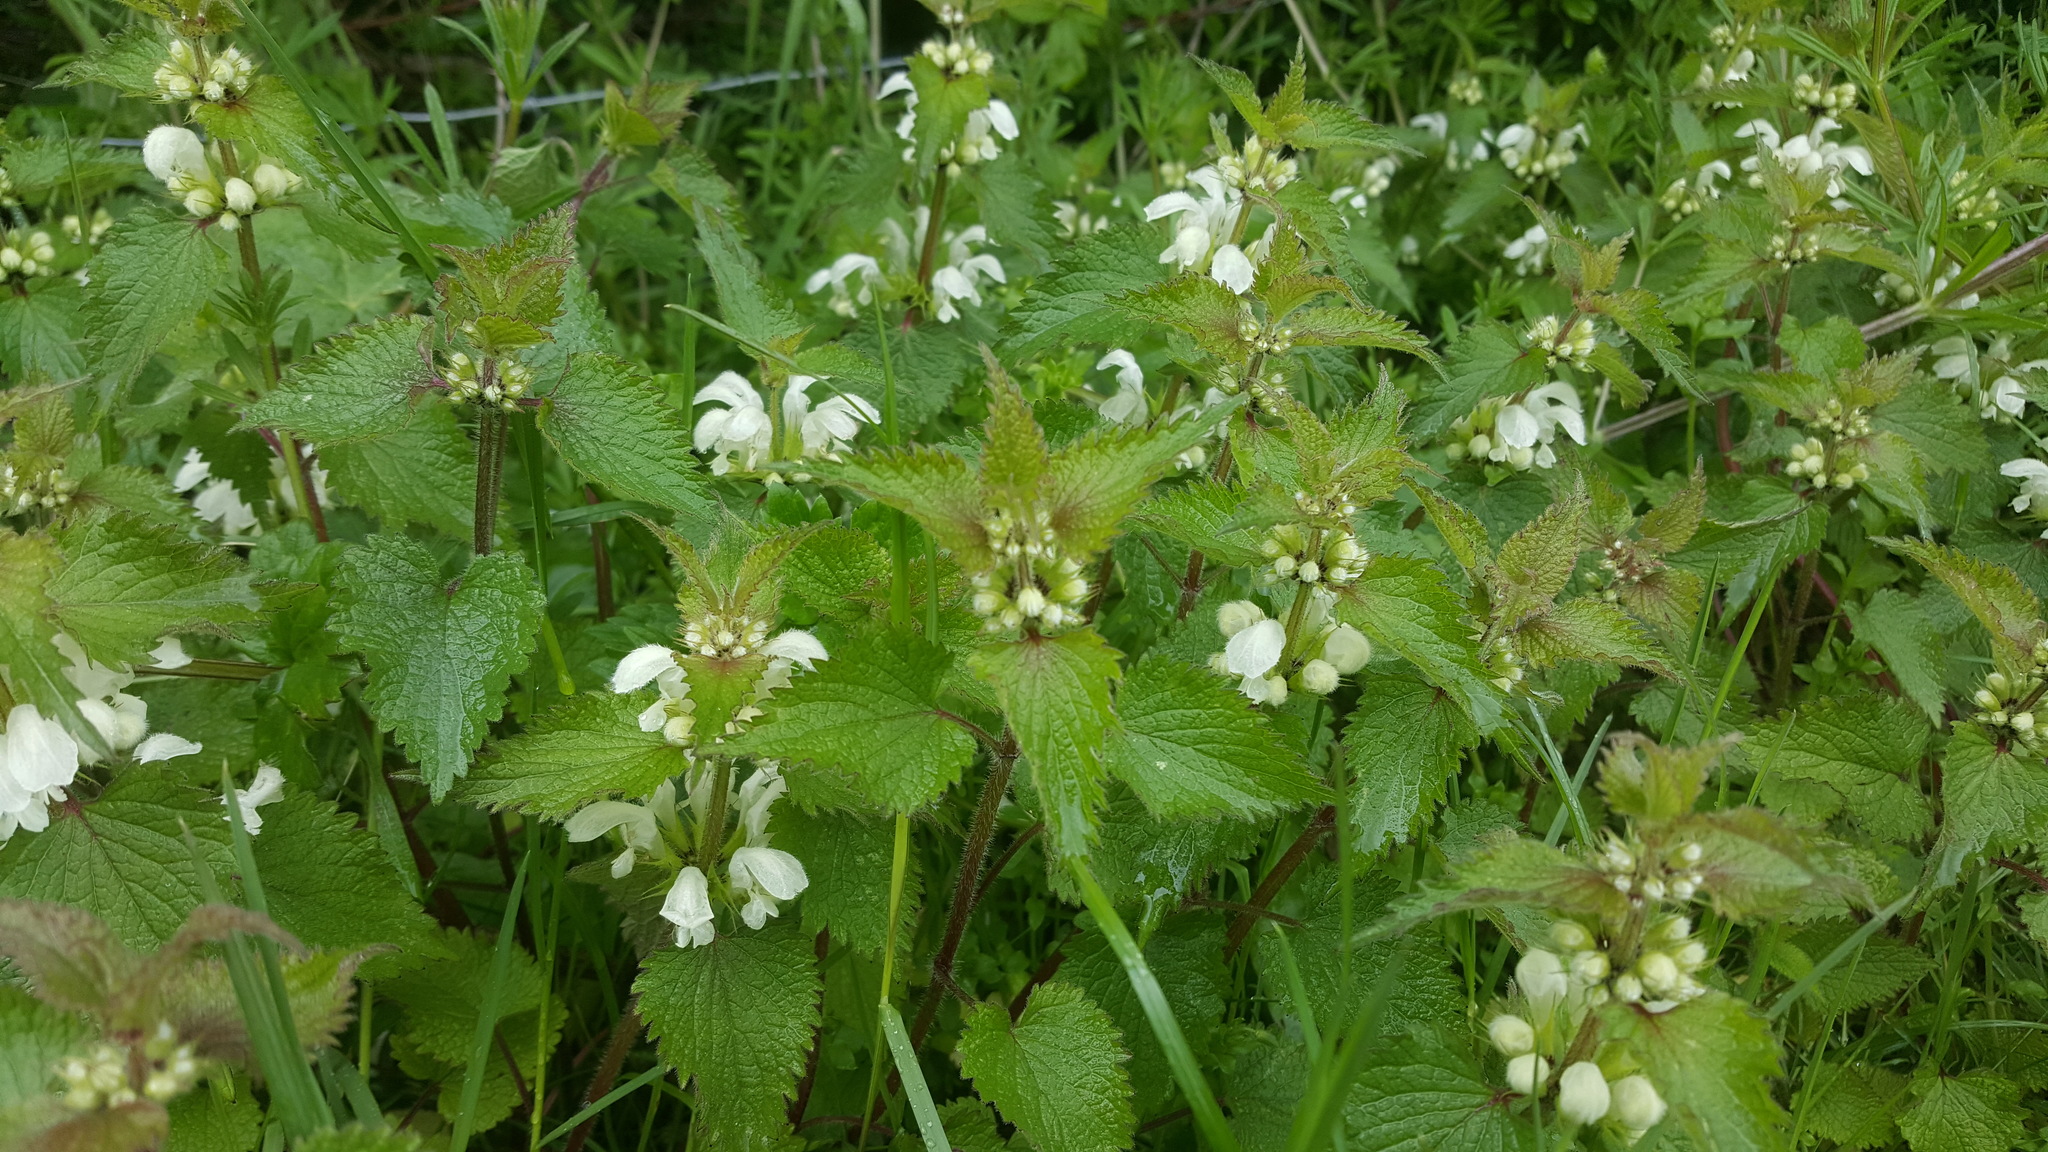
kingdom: Plantae
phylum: Tracheophyta
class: Magnoliopsida
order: Lamiales
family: Lamiaceae
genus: Lamium
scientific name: Lamium album
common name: White dead-nettle
